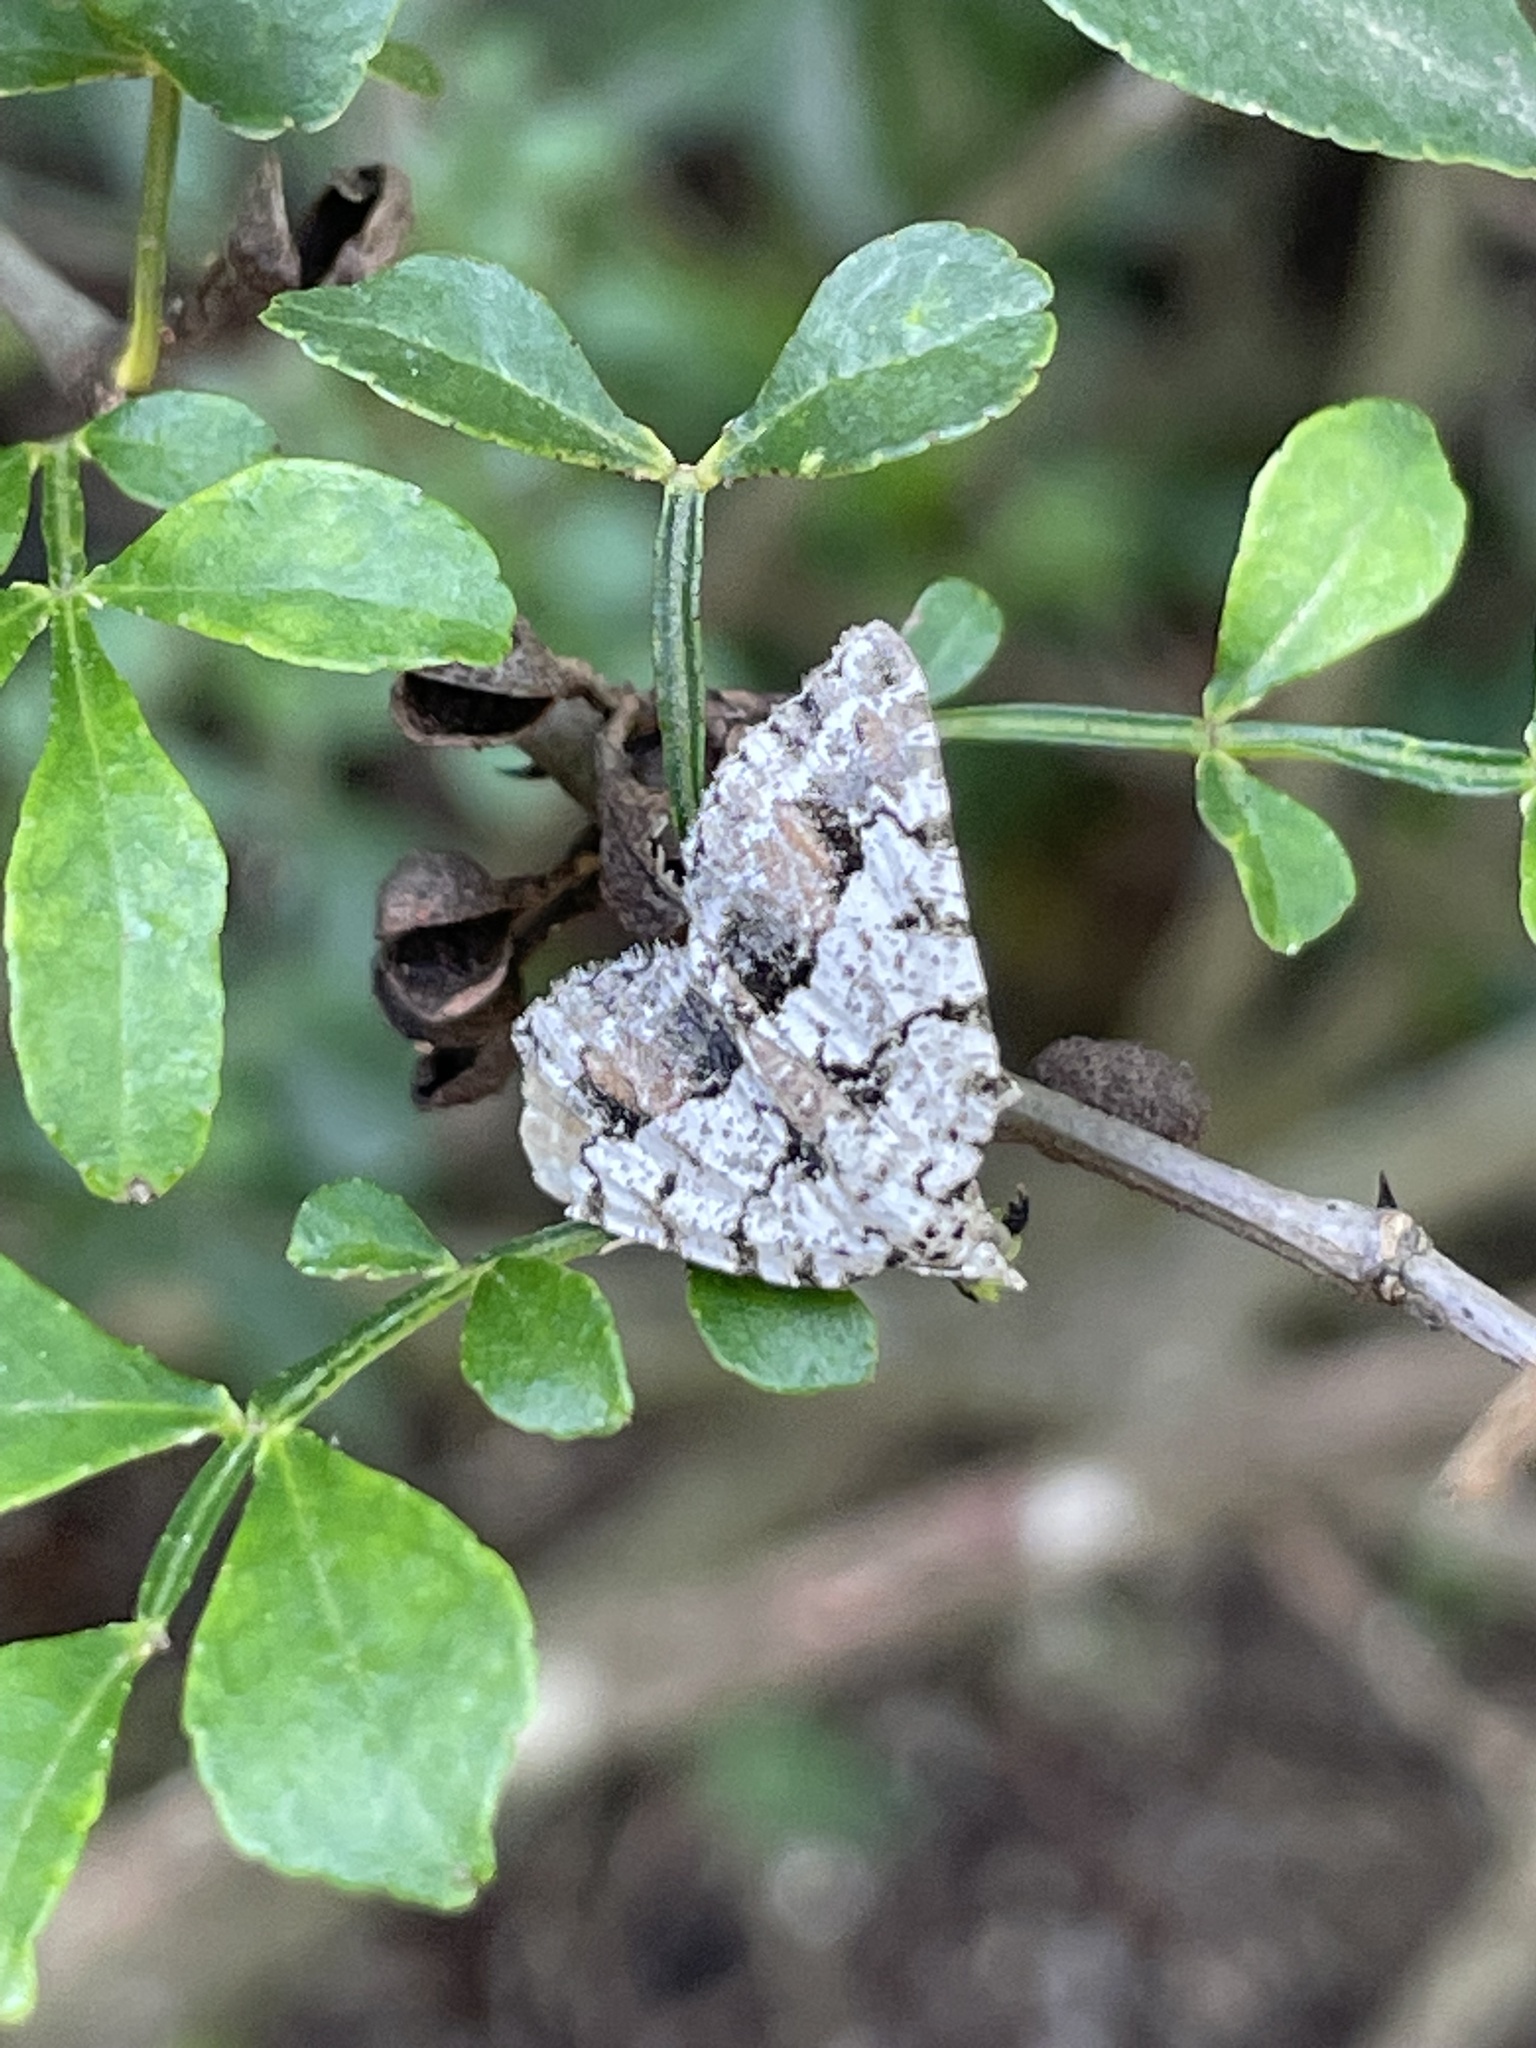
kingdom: Animalia
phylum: Arthropoda
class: Insecta
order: Lepidoptera
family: Geometridae
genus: Macaria
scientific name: Macaria graphidaria
